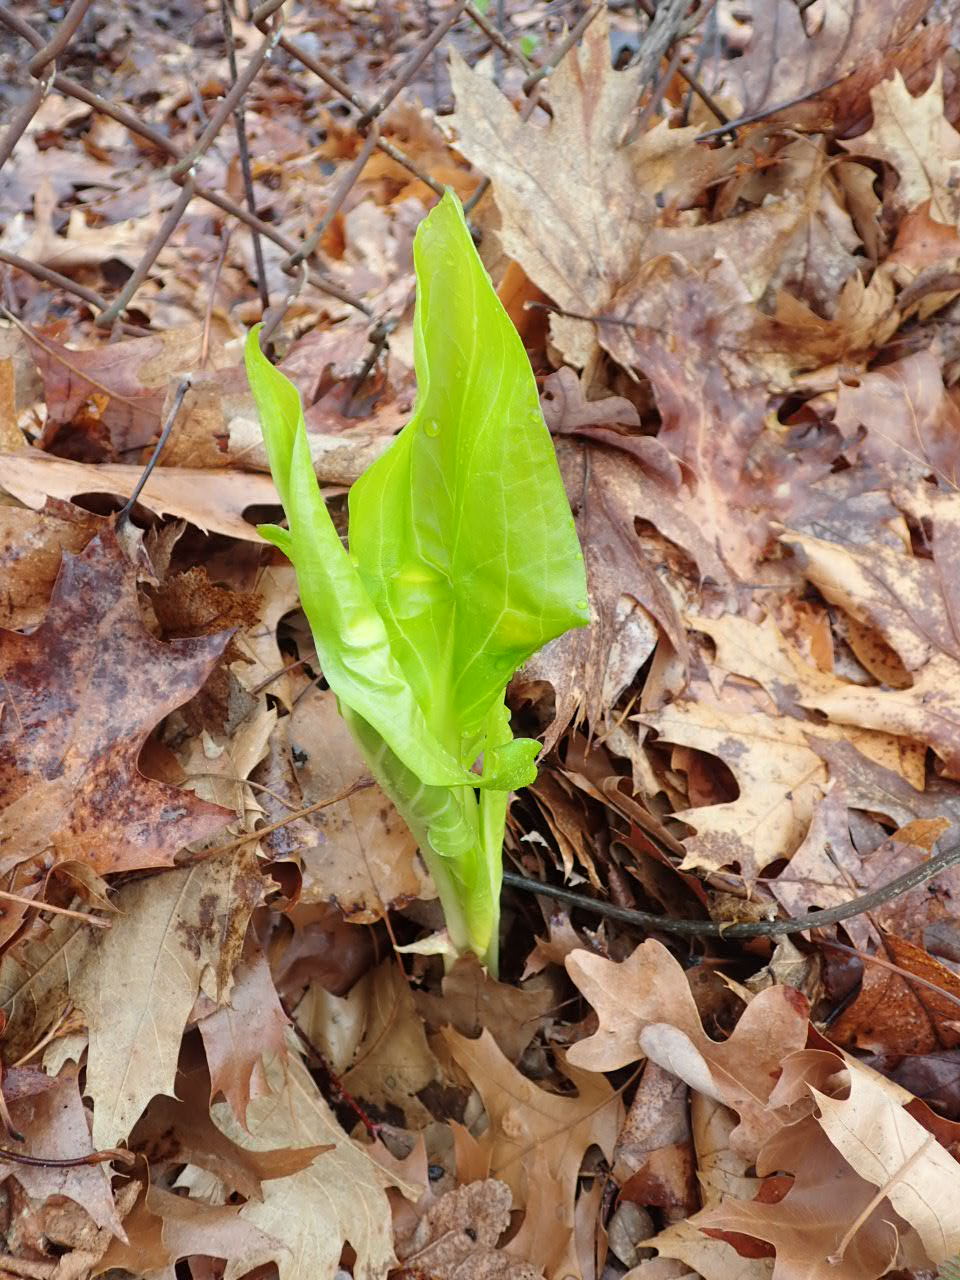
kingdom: Plantae
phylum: Tracheophyta
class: Liliopsida
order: Alismatales
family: Araceae
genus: Symplocarpus
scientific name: Symplocarpus foetidus
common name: Eastern skunk cabbage
